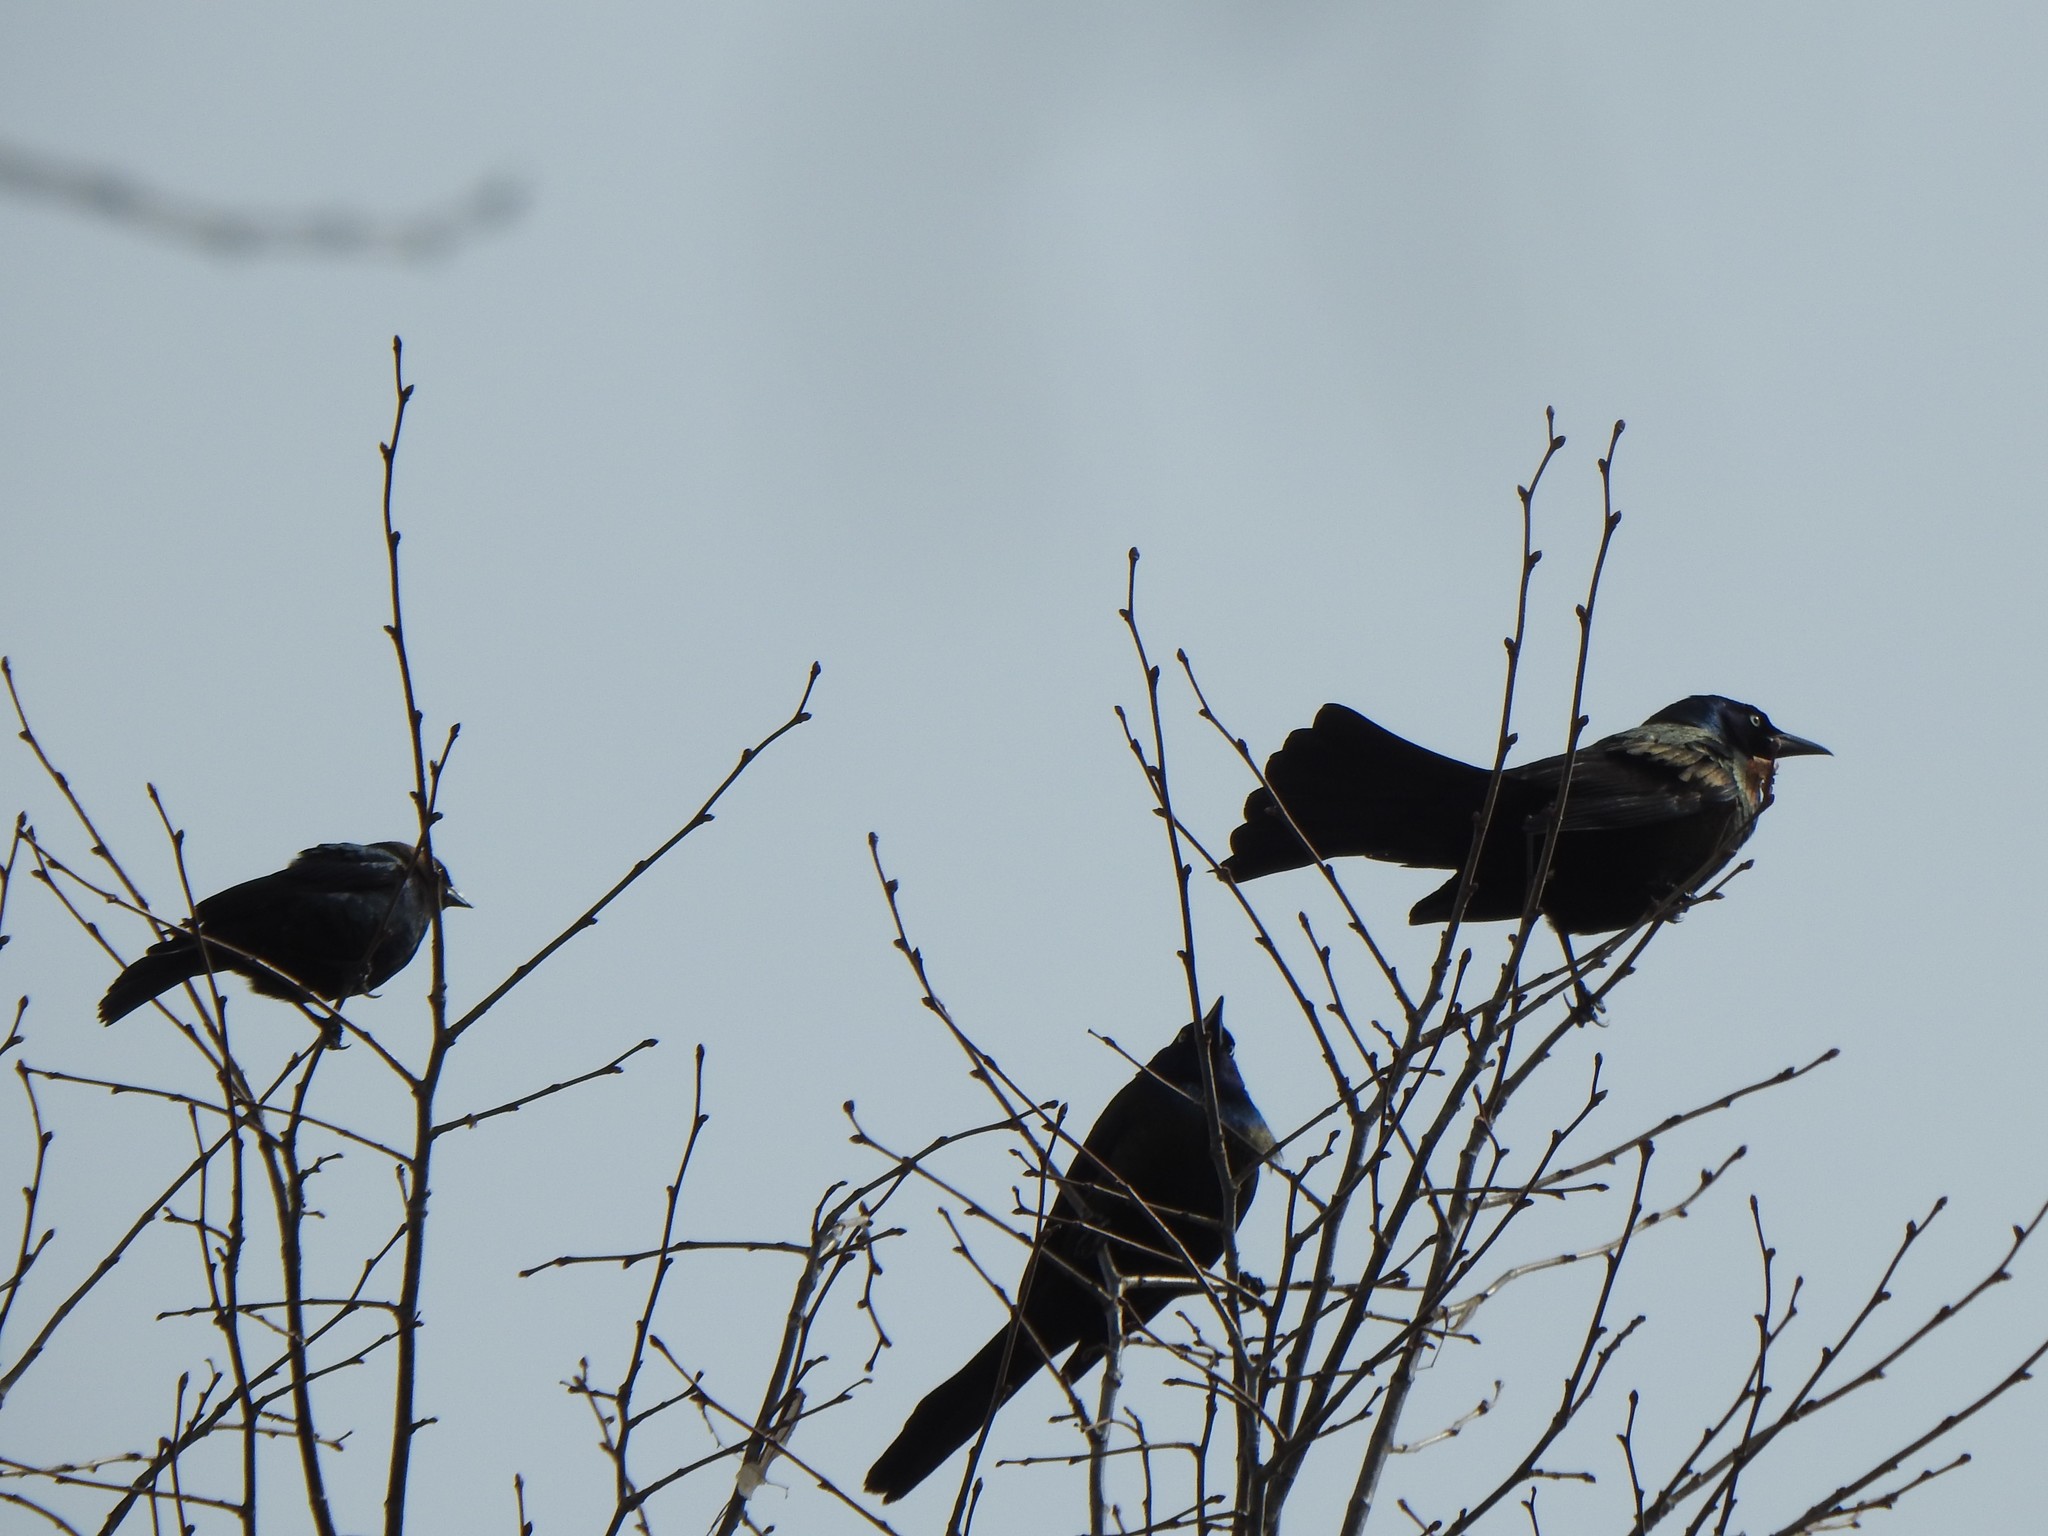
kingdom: Animalia
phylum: Chordata
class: Aves
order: Passeriformes
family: Icteridae
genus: Molothrus
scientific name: Molothrus ater
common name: Brown-headed cowbird
